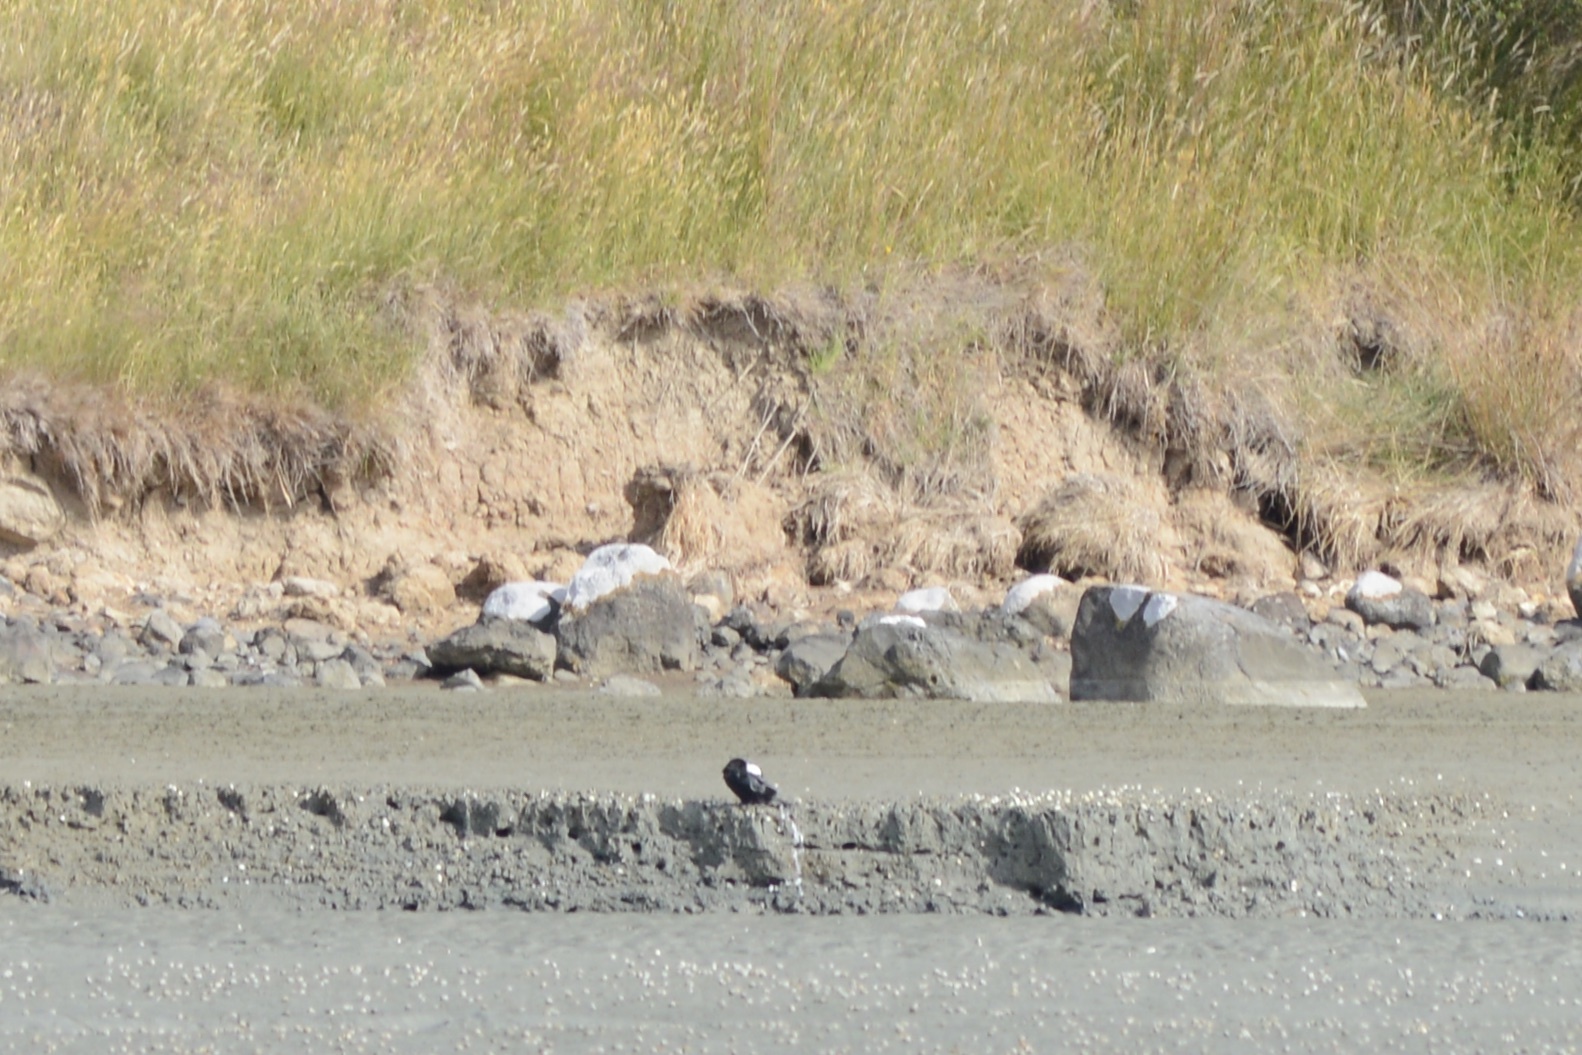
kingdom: Animalia
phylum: Chordata
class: Aves
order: Suliformes
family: Phalacrocoracidae
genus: Microcarbo
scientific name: Microcarbo melanoleucos
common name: Little pied cormorant
